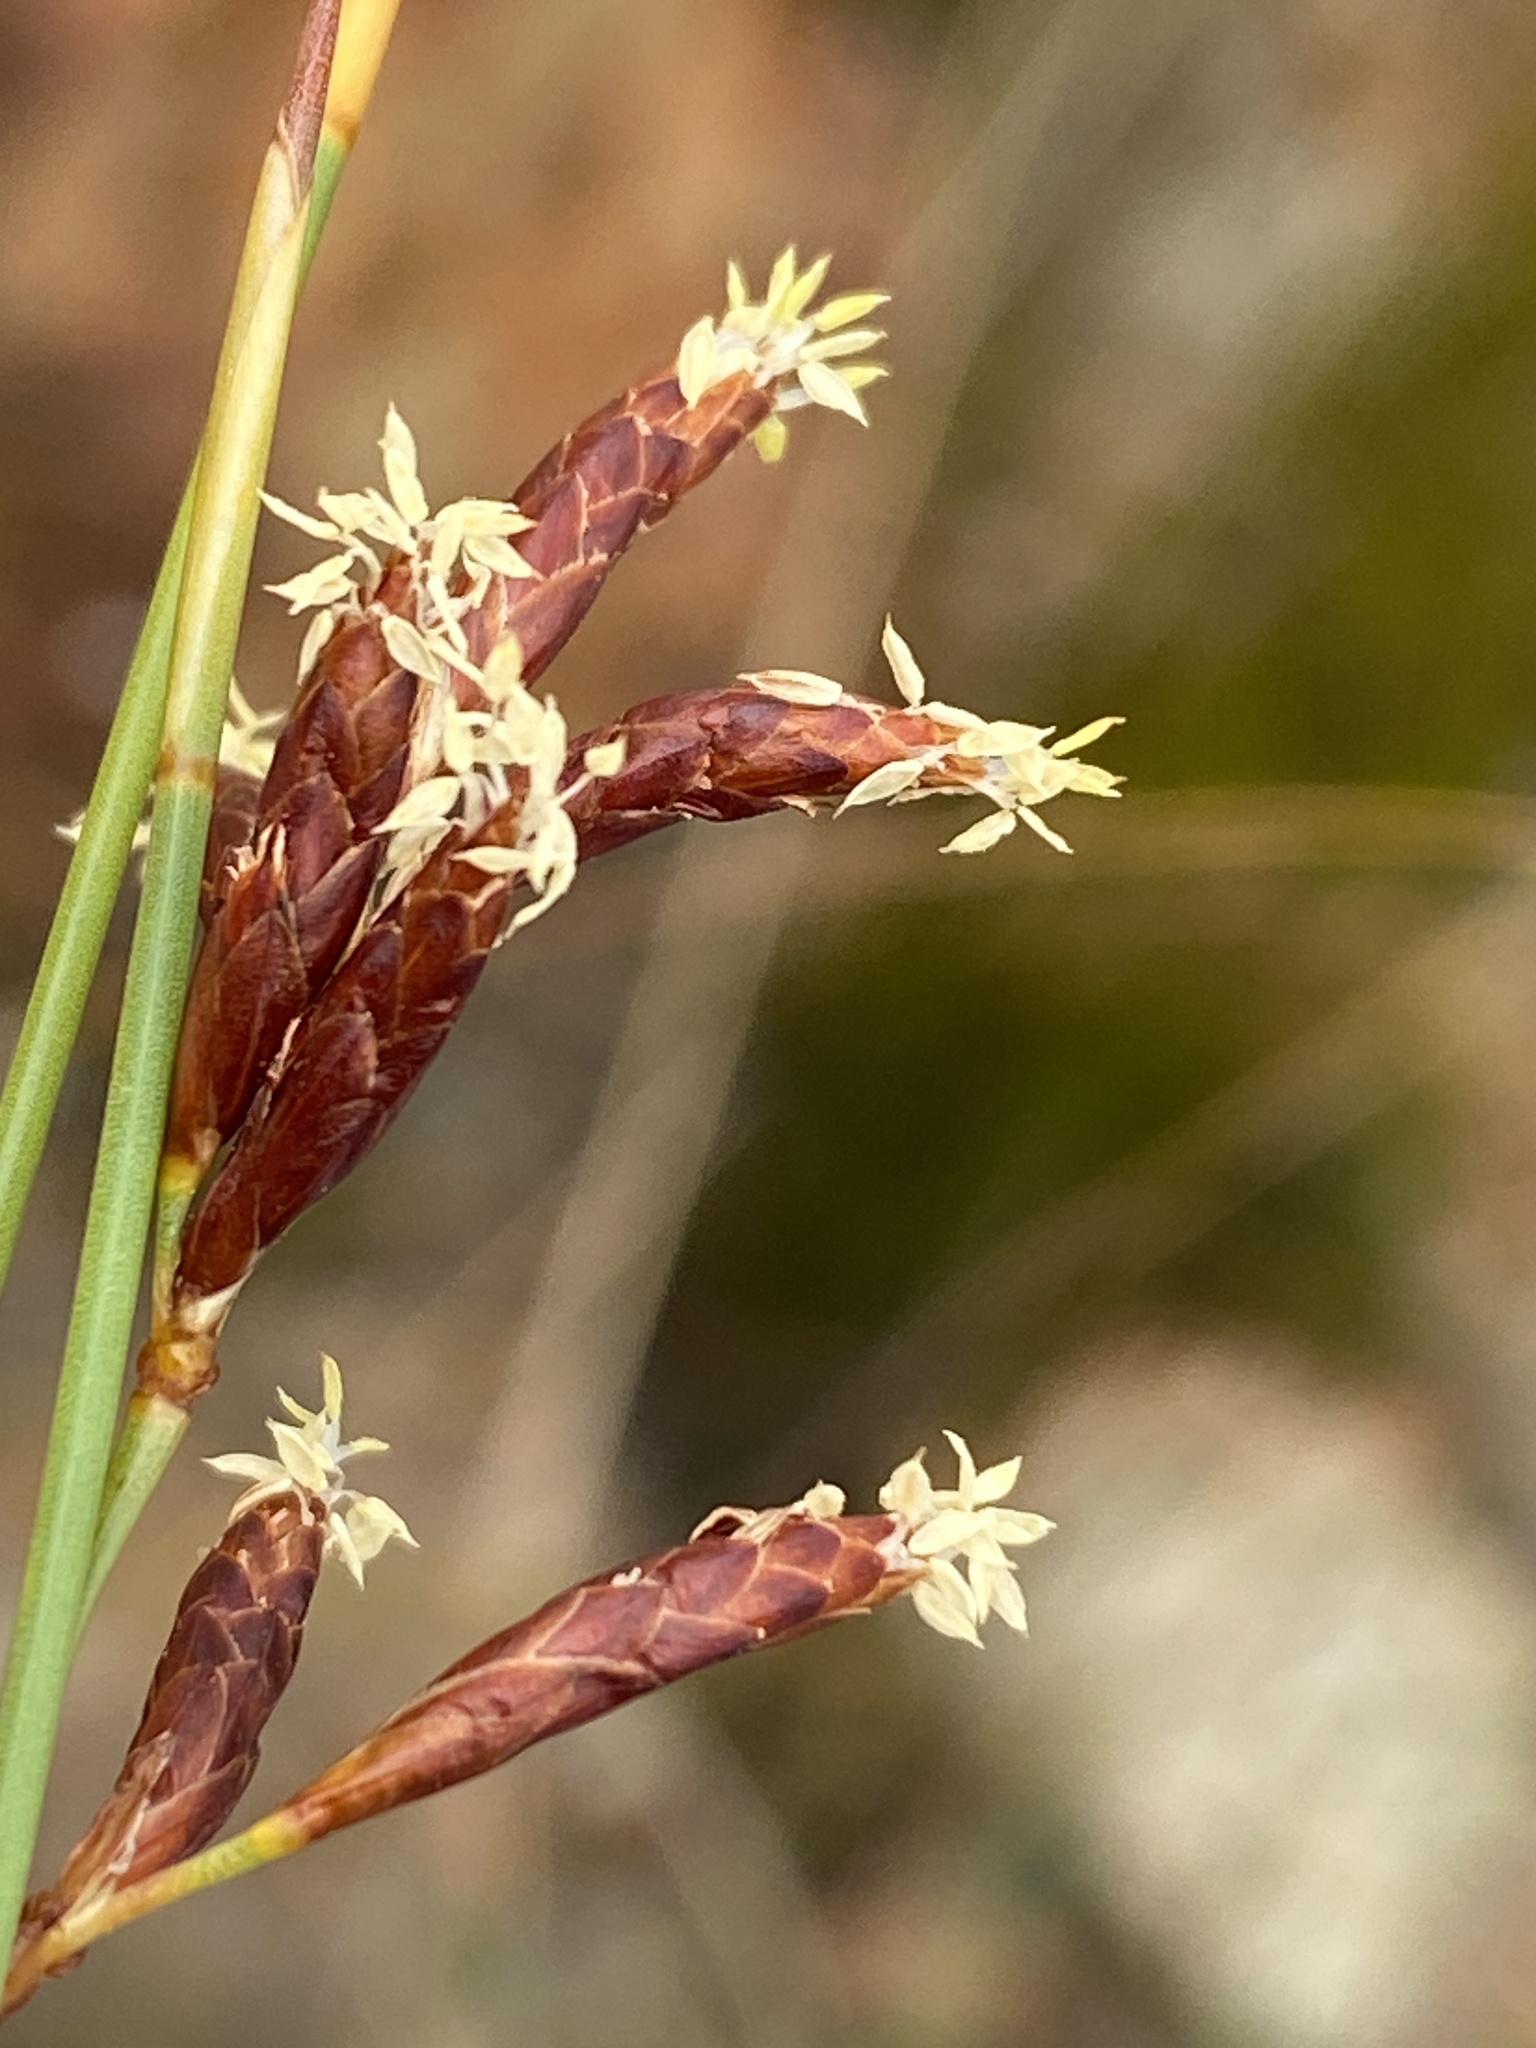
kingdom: Plantae
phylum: Tracheophyta
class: Liliopsida
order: Poales
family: Restionaceae
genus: Hypodiscus
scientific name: Hypodiscus striatus
